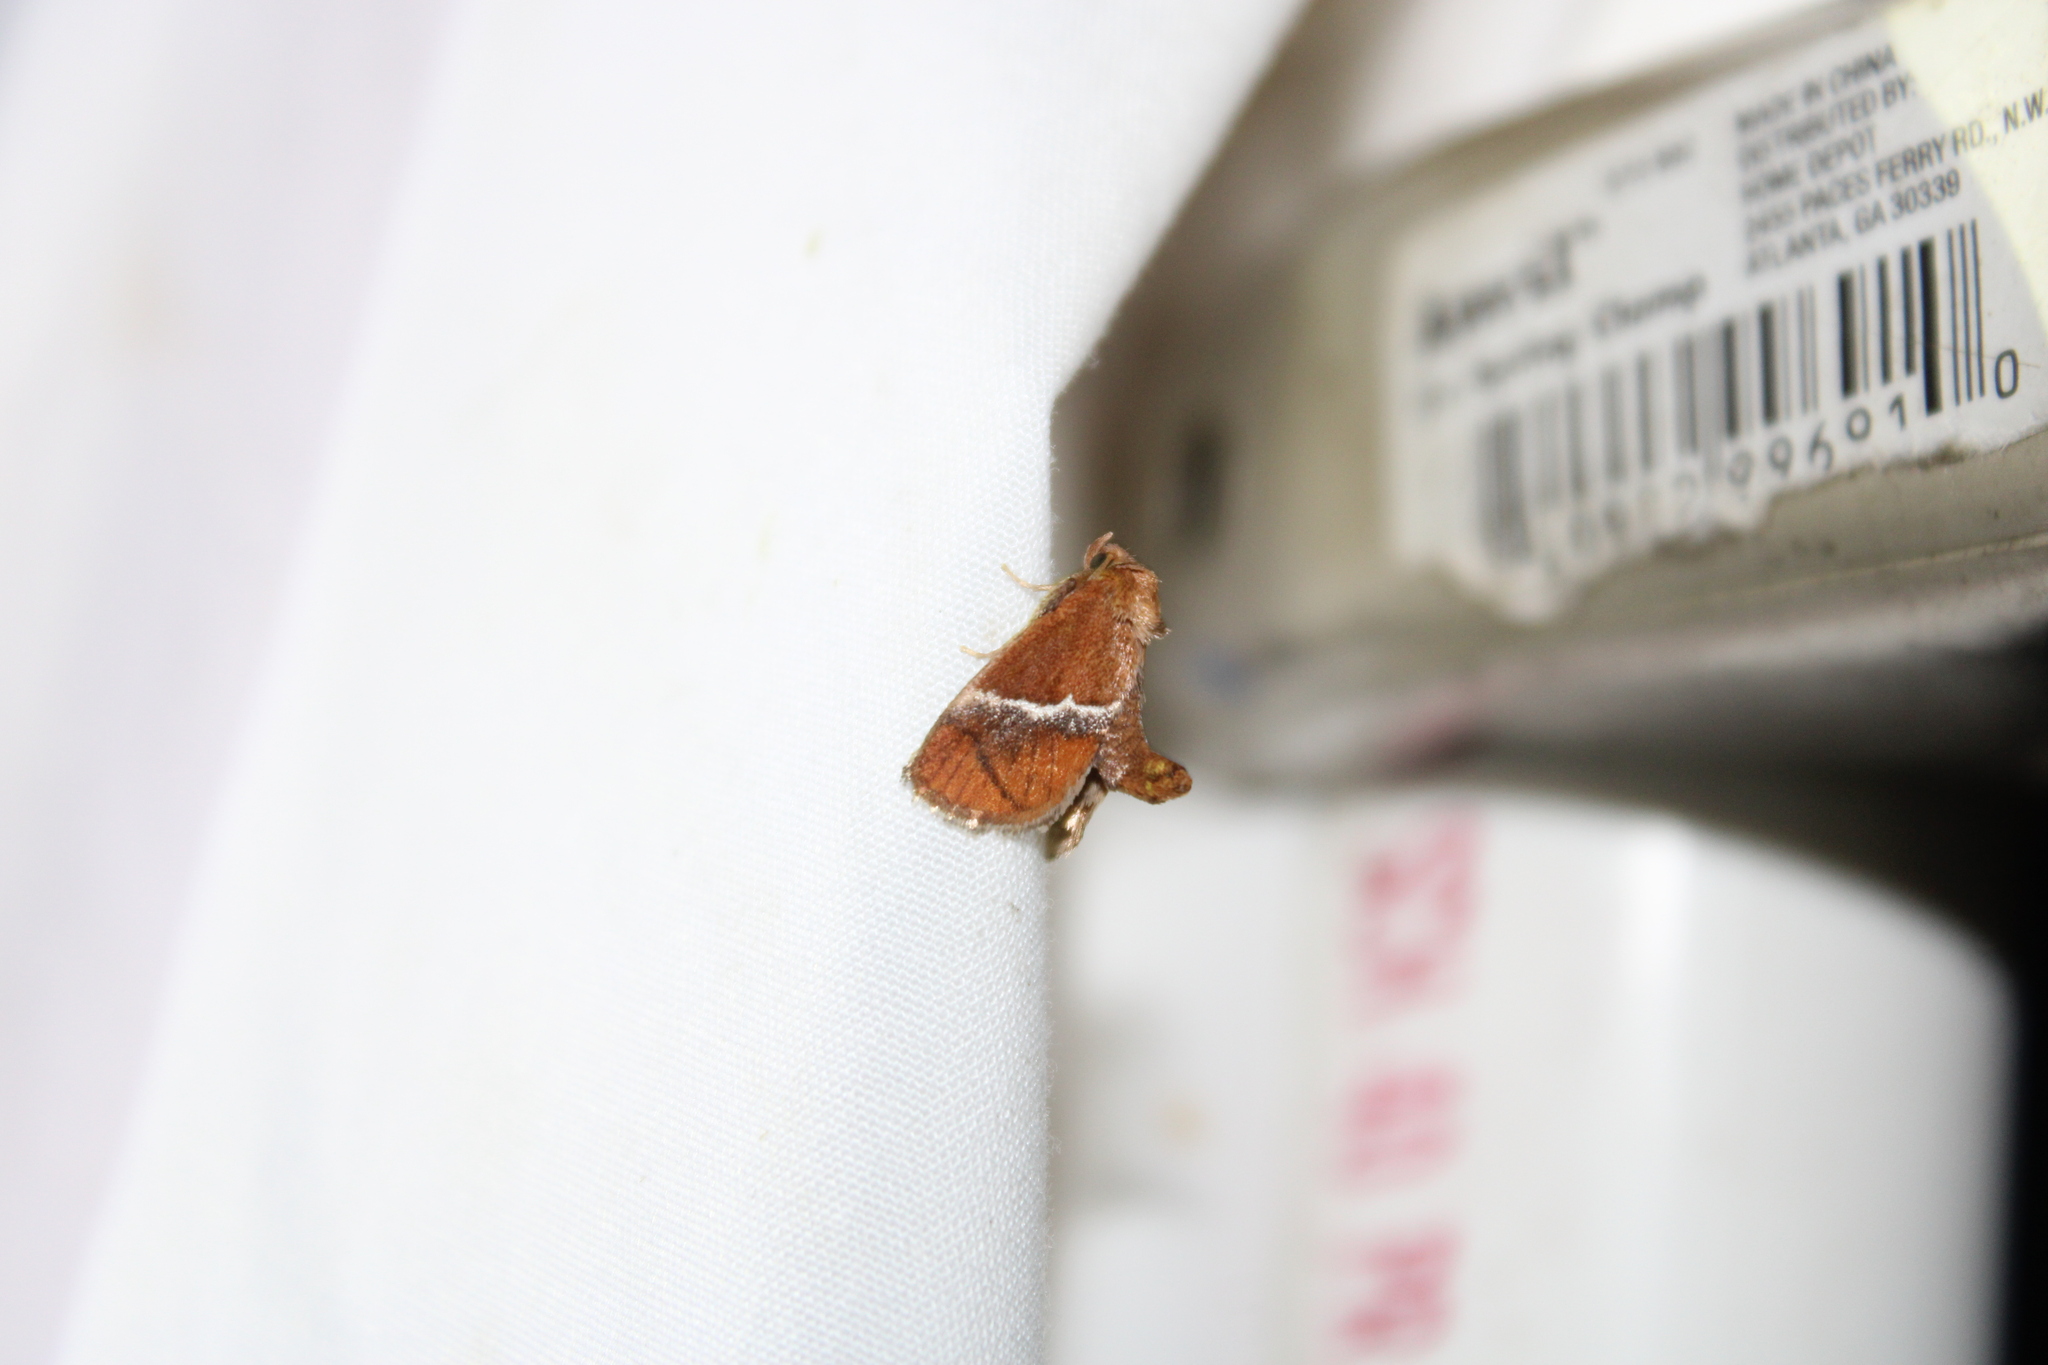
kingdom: Animalia
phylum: Arthropoda
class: Insecta
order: Lepidoptera
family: Limacodidae
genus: Lithacodes
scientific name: Lithacodes fasciola
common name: Yellow-shouldered slug moth
